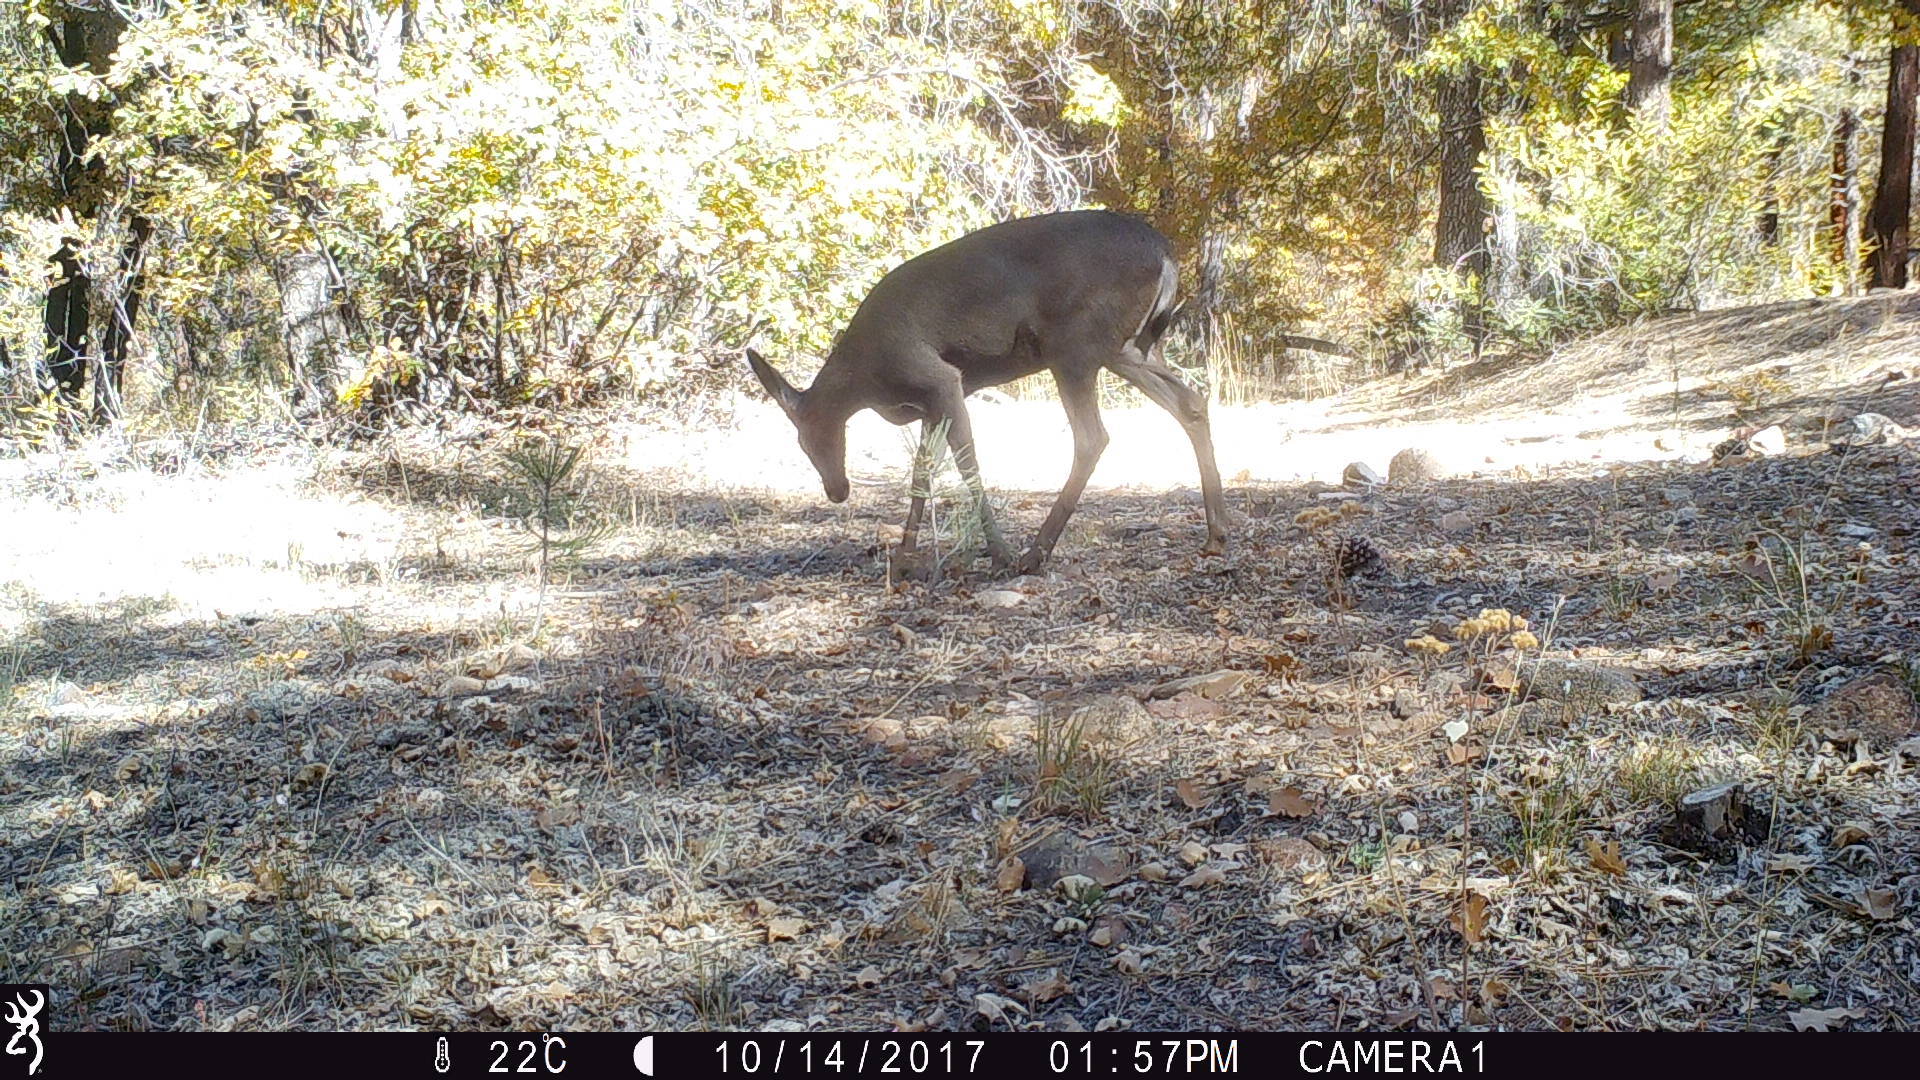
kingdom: Animalia
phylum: Chordata
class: Mammalia
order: Artiodactyla
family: Cervidae
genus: Odocoileus
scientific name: Odocoileus hemionus
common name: Mule deer
